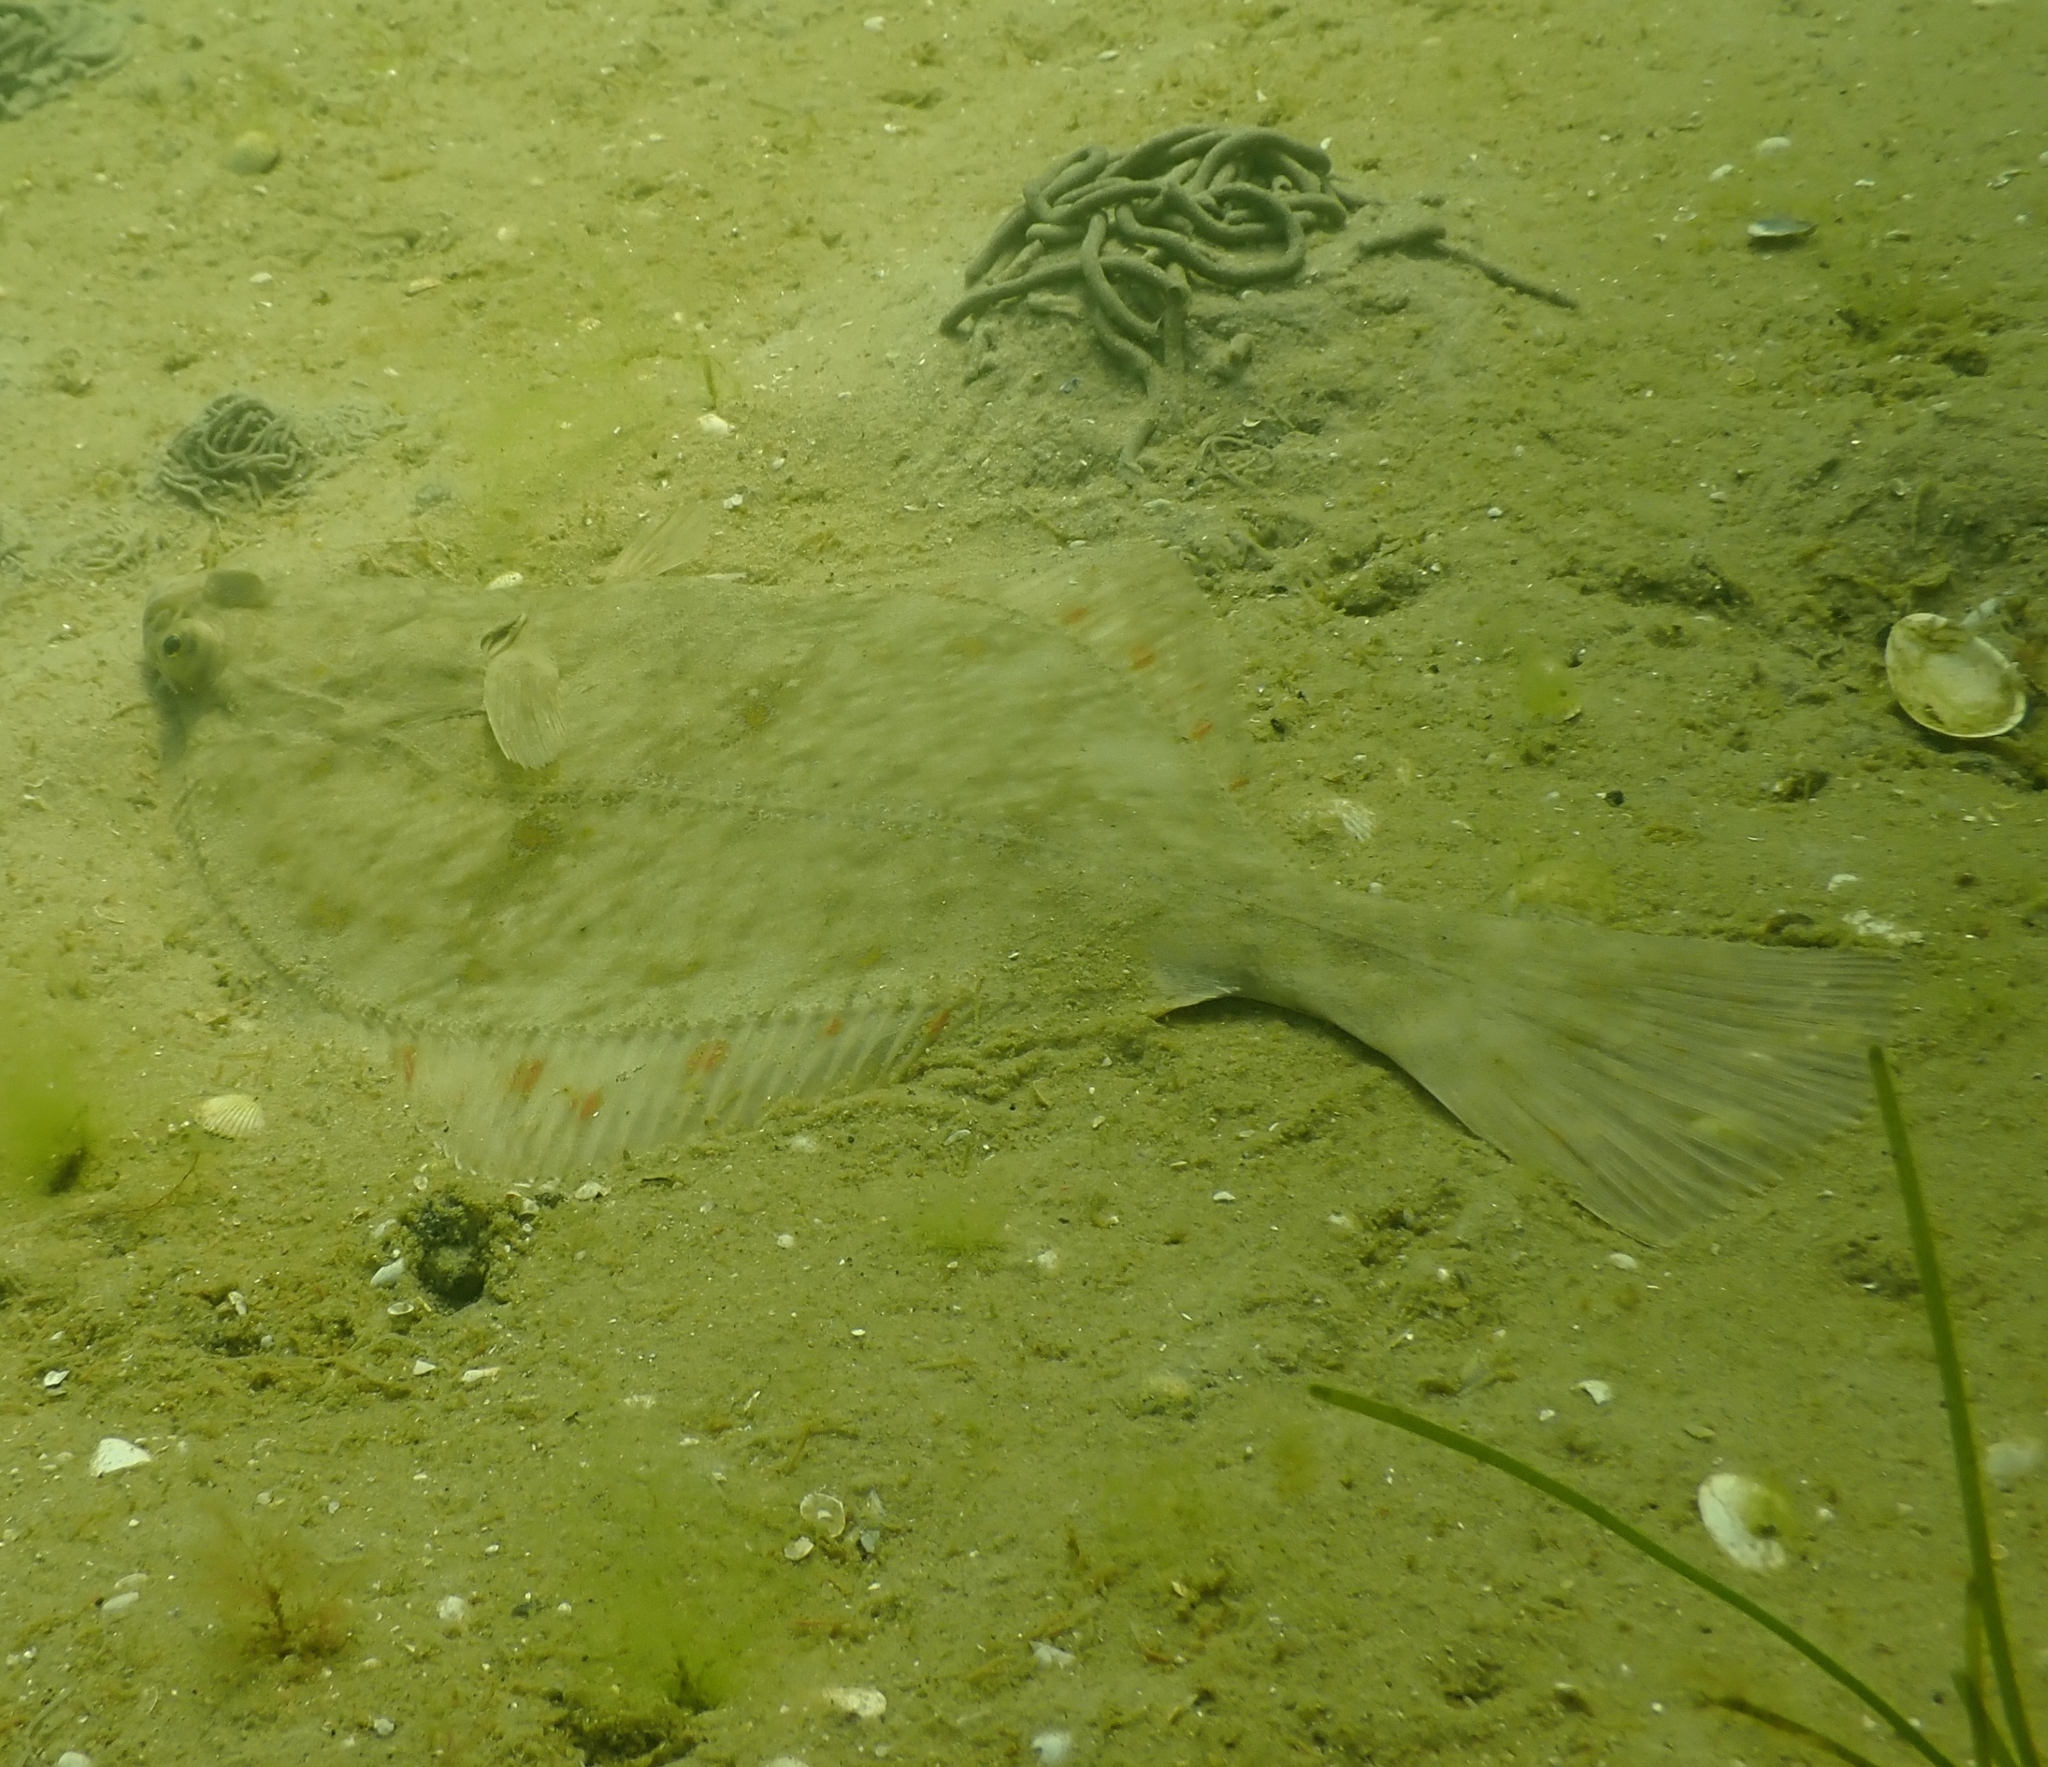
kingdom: Animalia
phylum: Chordata
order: Pleuronectiformes
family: Pleuronectidae
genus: Platichthys
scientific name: Platichthys flesus
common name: European flounder
